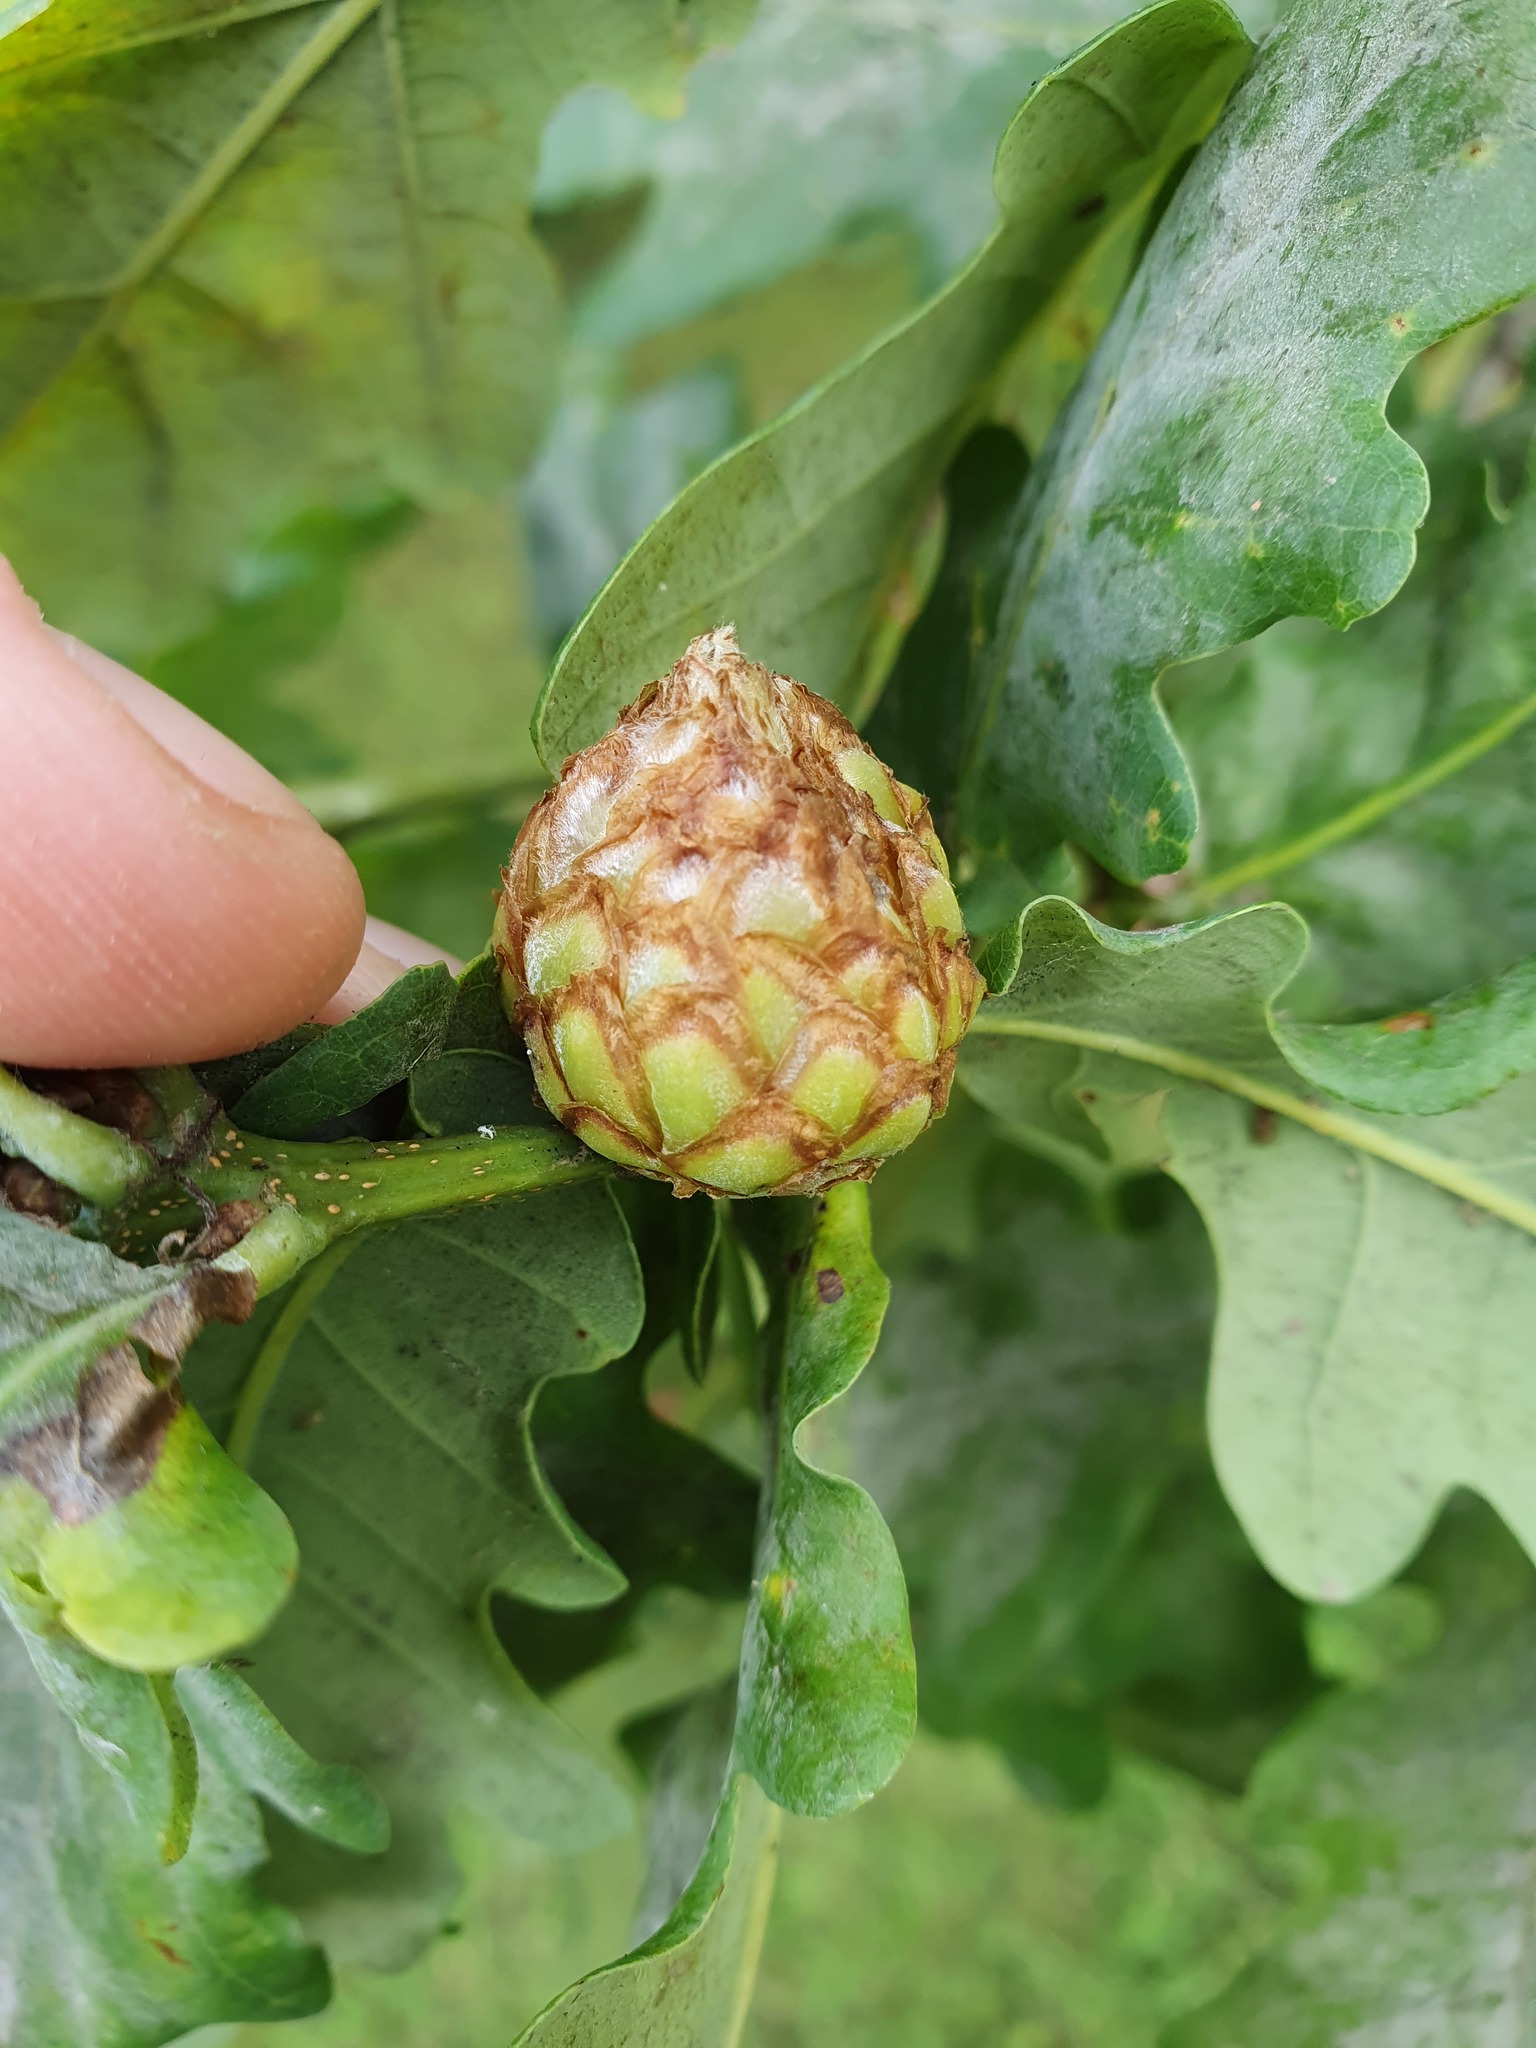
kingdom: Animalia
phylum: Arthropoda
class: Insecta
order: Hymenoptera
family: Cynipidae
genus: Andricus
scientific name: Andricus foecundatrix
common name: Artichoke gall
